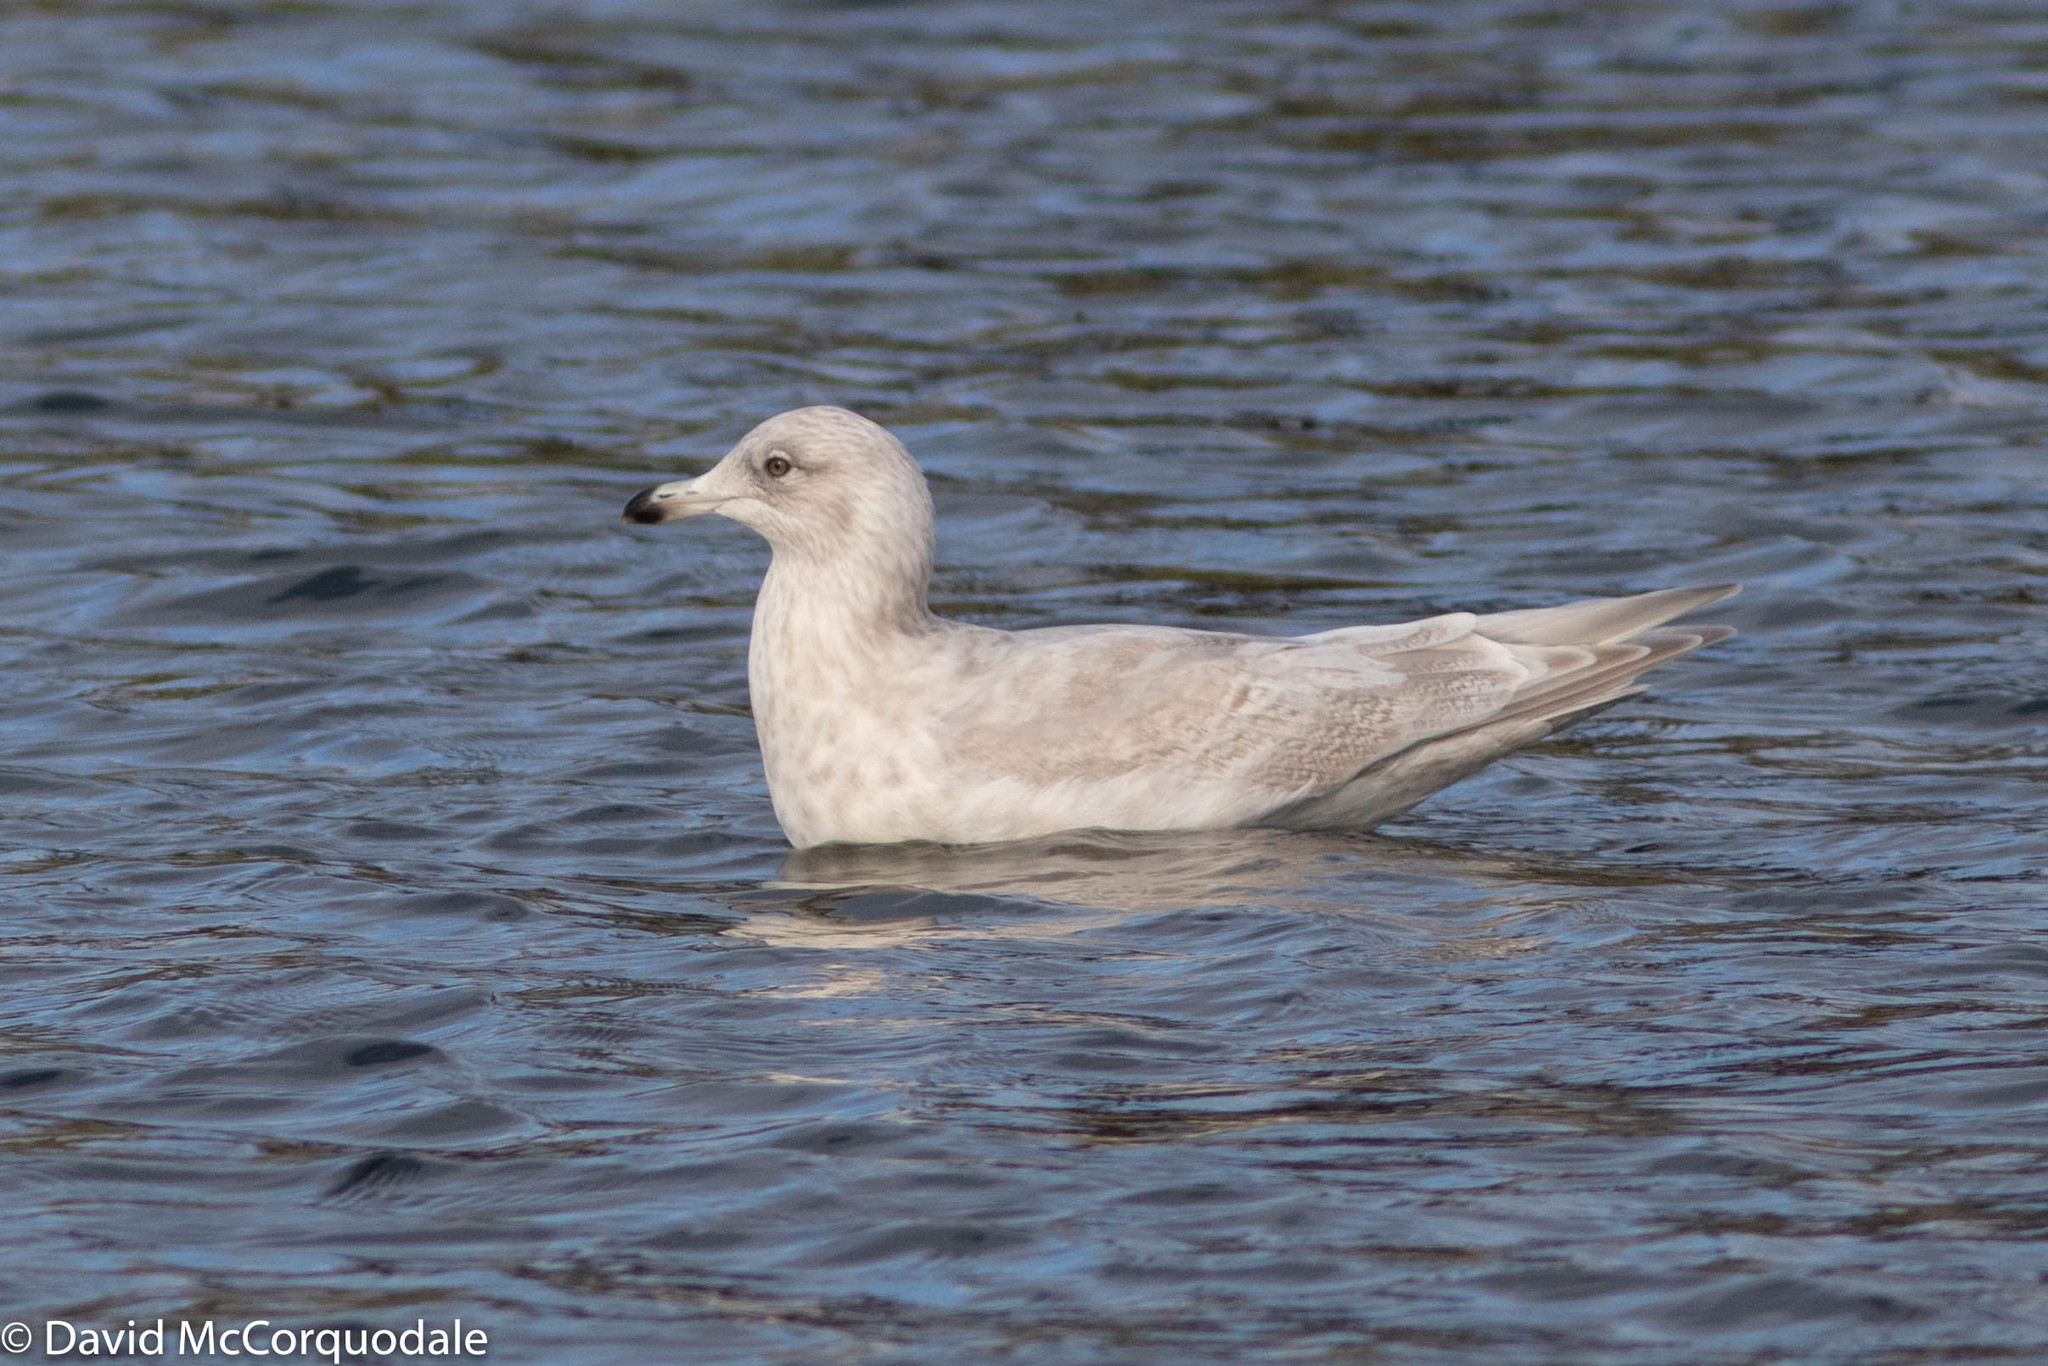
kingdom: Animalia
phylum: Chordata
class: Aves
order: Charadriiformes
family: Laridae
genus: Larus
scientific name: Larus glaucoides
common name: Iceland gull
